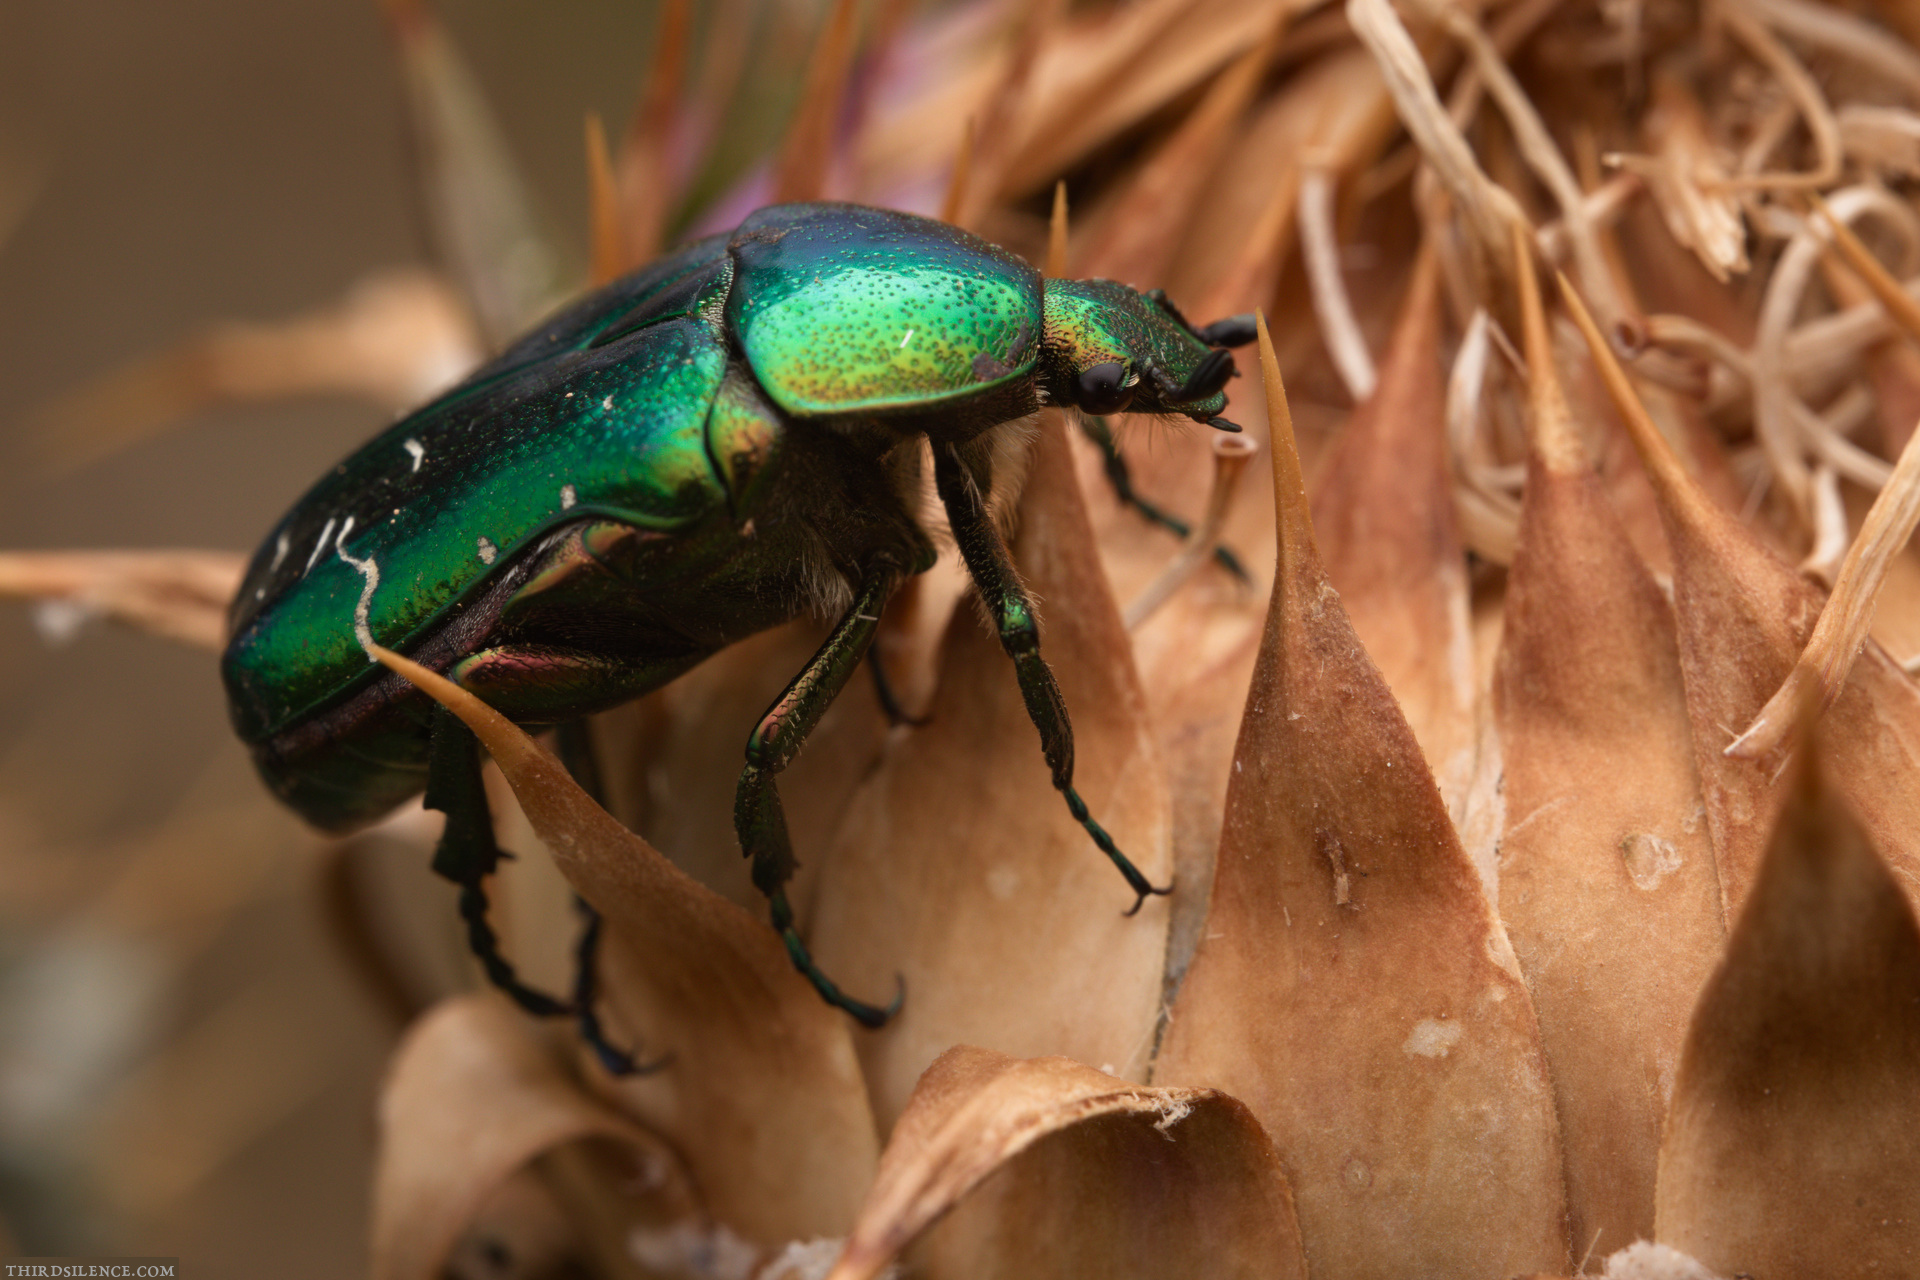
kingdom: Animalia
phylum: Arthropoda
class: Insecta
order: Coleoptera
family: Scarabaeidae
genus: Cetonia
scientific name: Cetonia aurata
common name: Rose chafer
